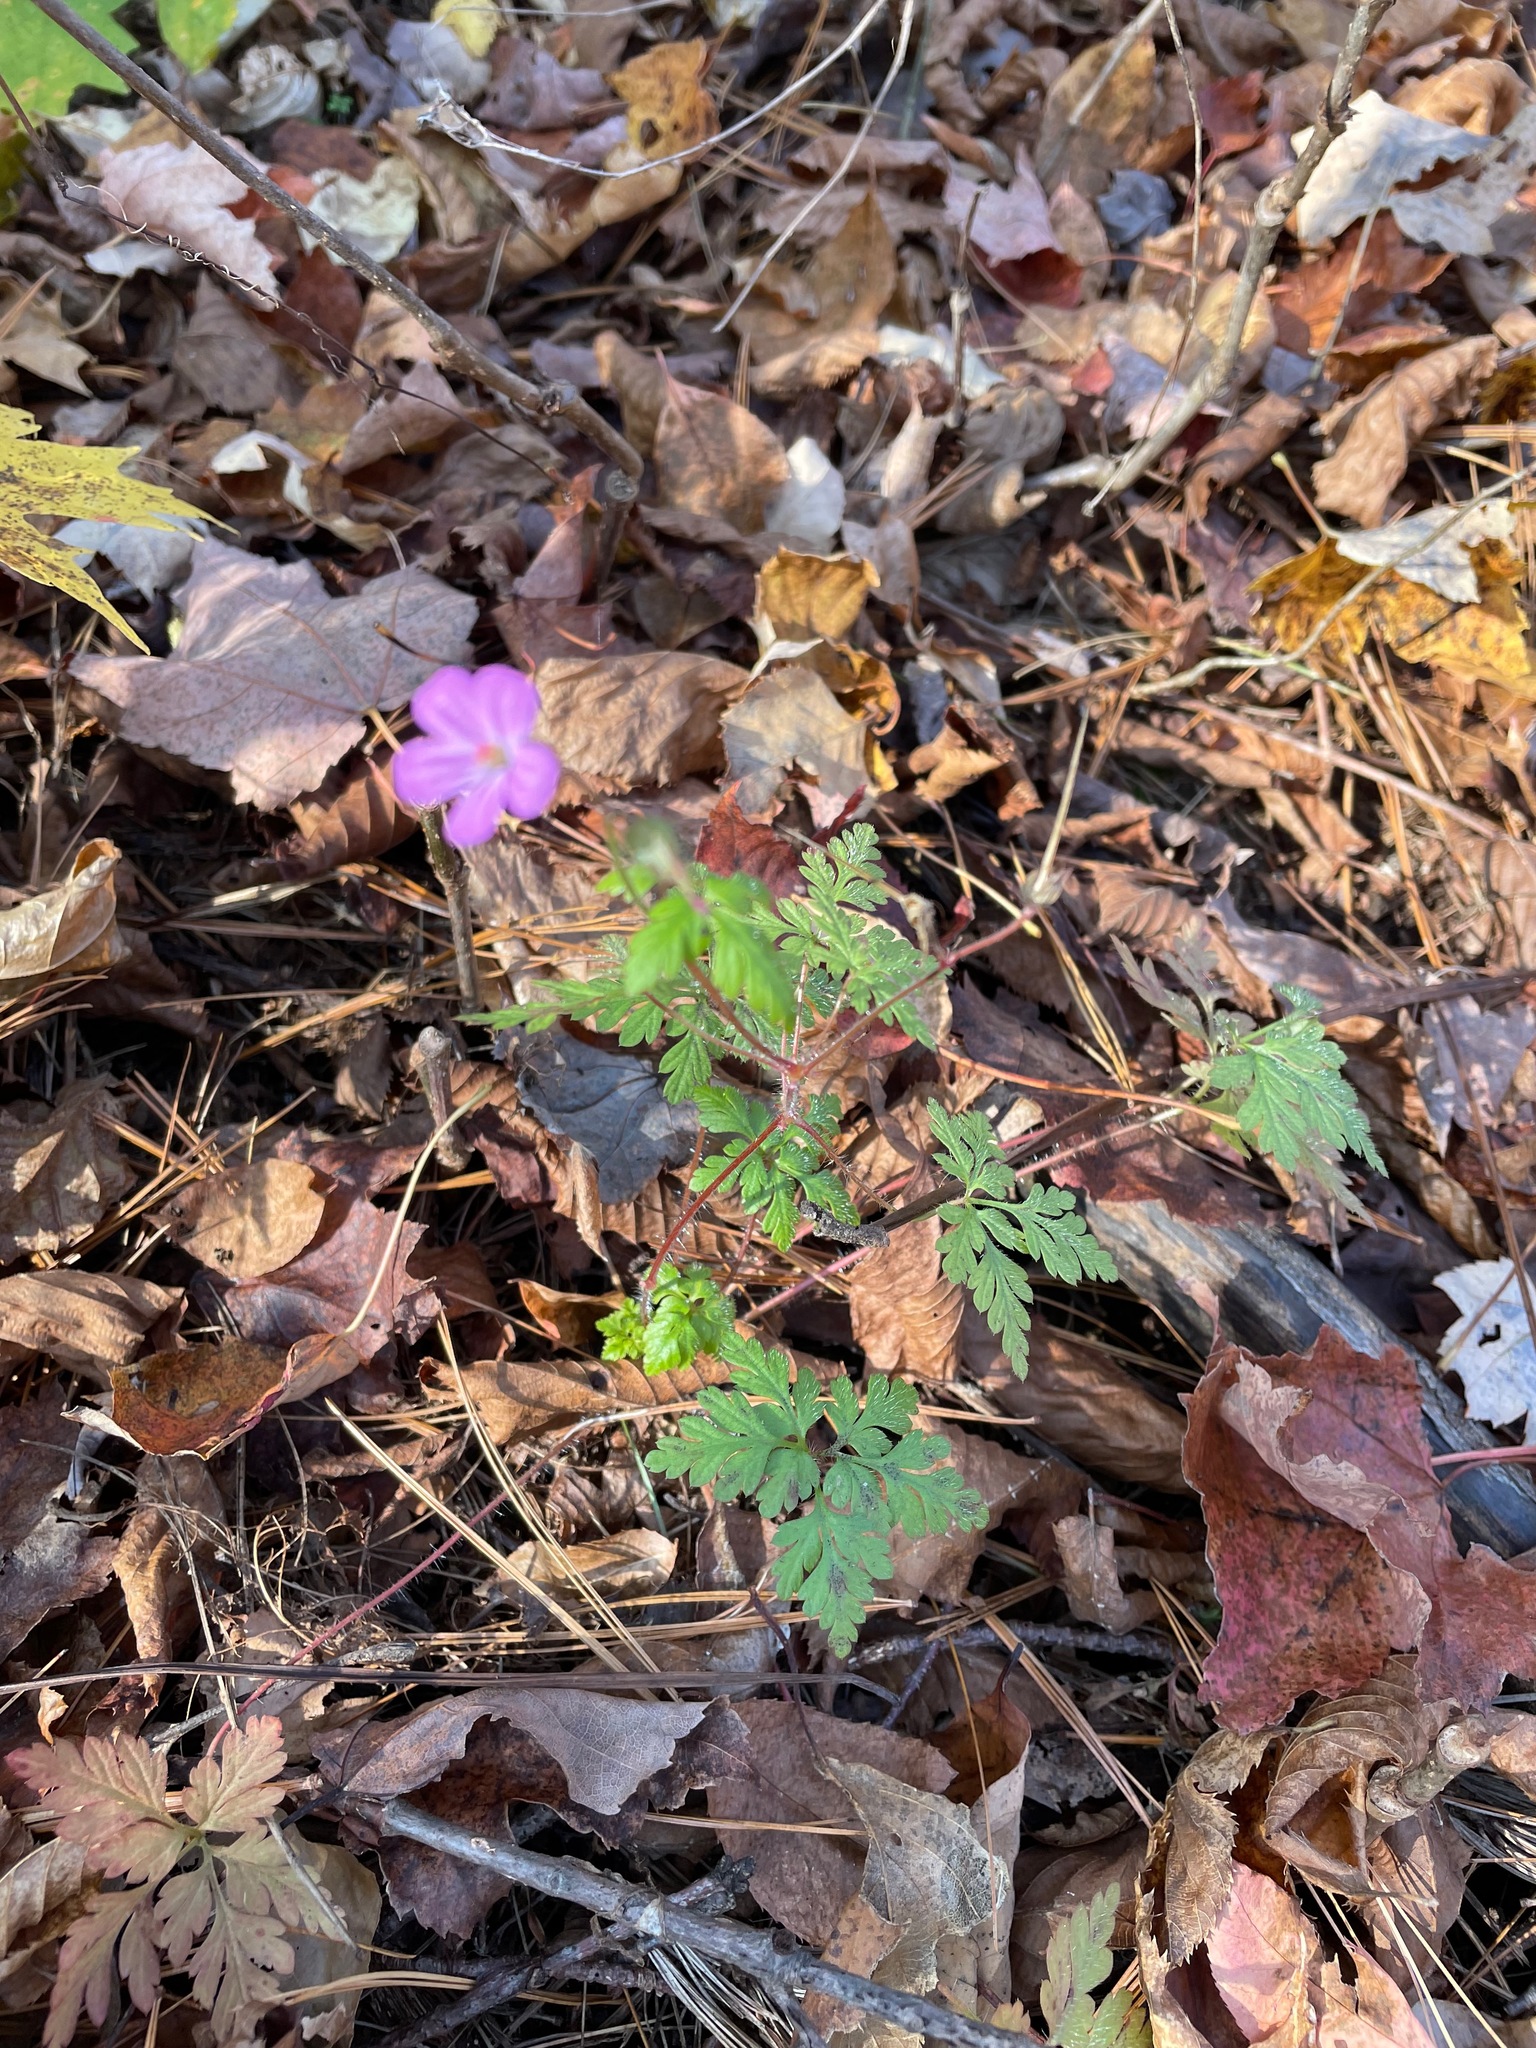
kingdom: Plantae
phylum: Tracheophyta
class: Magnoliopsida
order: Geraniales
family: Geraniaceae
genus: Geranium
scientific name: Geranium robertianum
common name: Herb-robert
